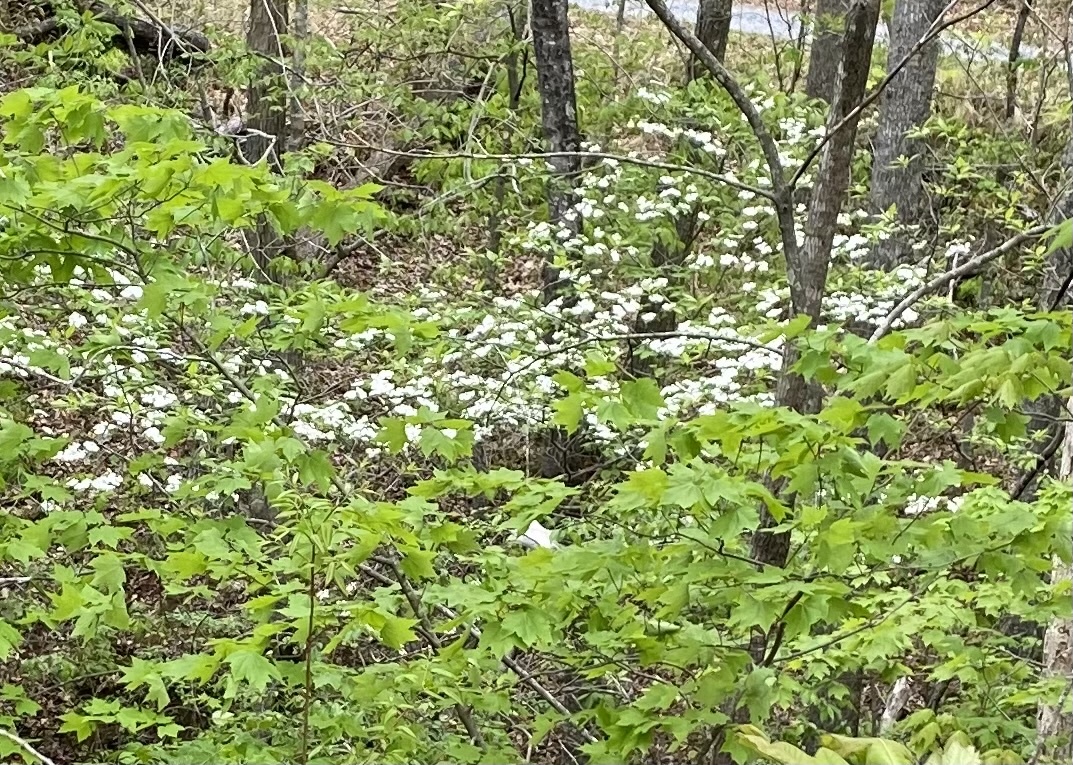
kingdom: Plantae
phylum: Tracheophyta
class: Magnoliopsida
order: Cornales
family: Cornaceae
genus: Cornus
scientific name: Cornus florida
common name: Flowering dogwood
